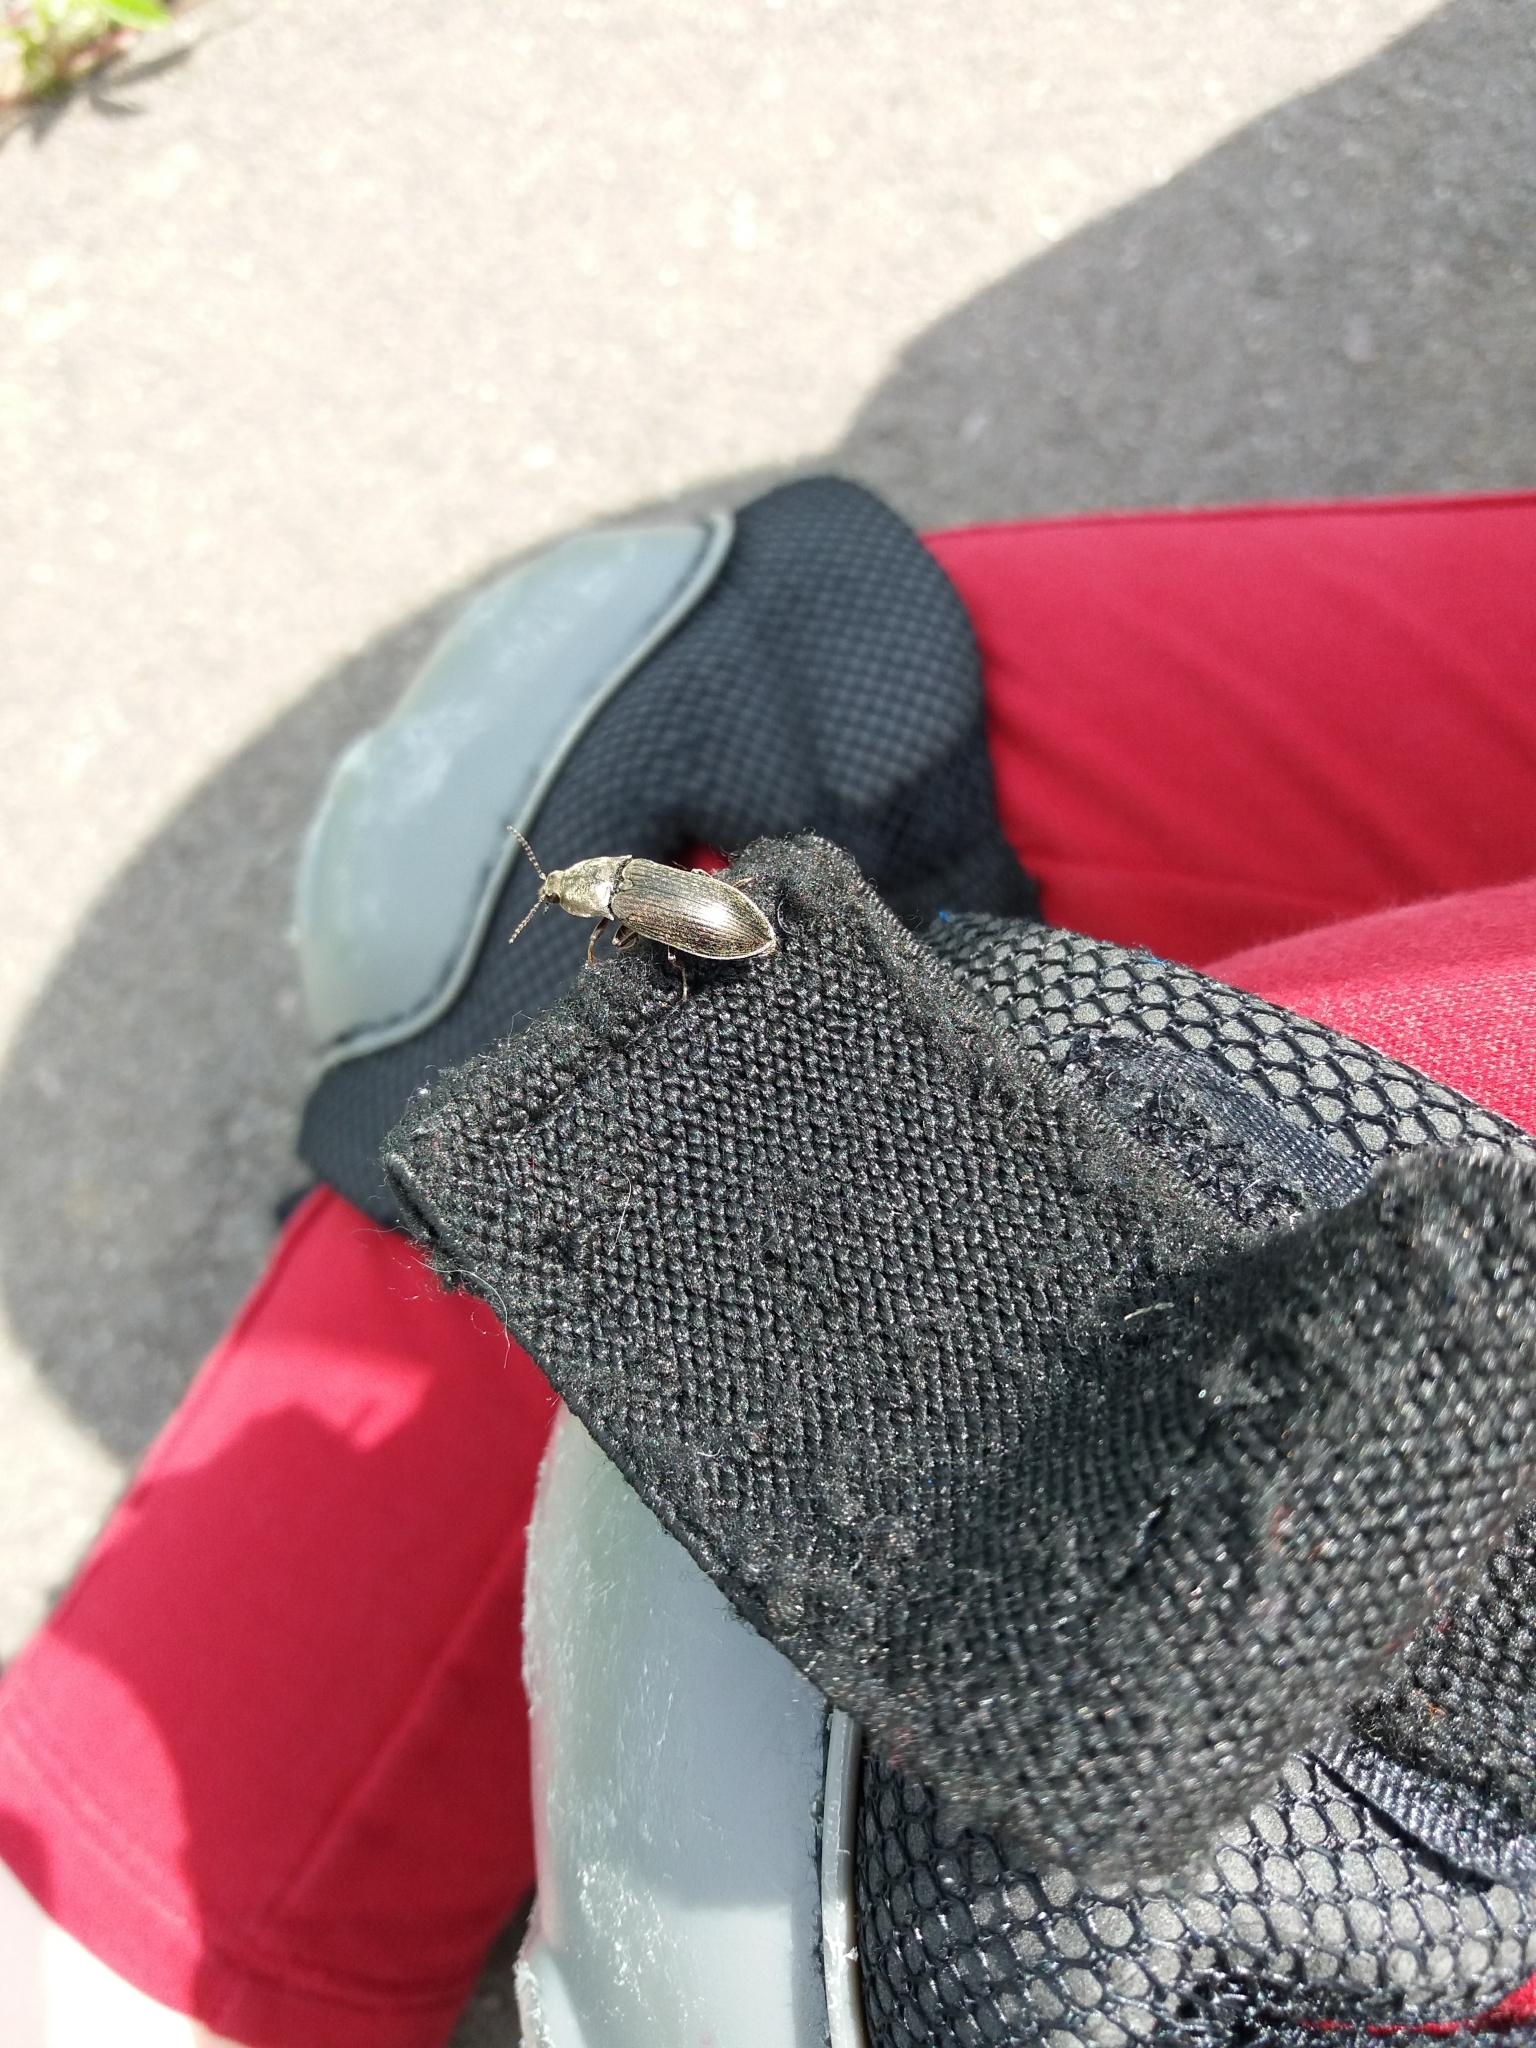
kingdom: Animalia
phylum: Arthropoda
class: Insecta
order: Coleoptera
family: Elateridae
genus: Selatosomus
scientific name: Selatosomus latus
